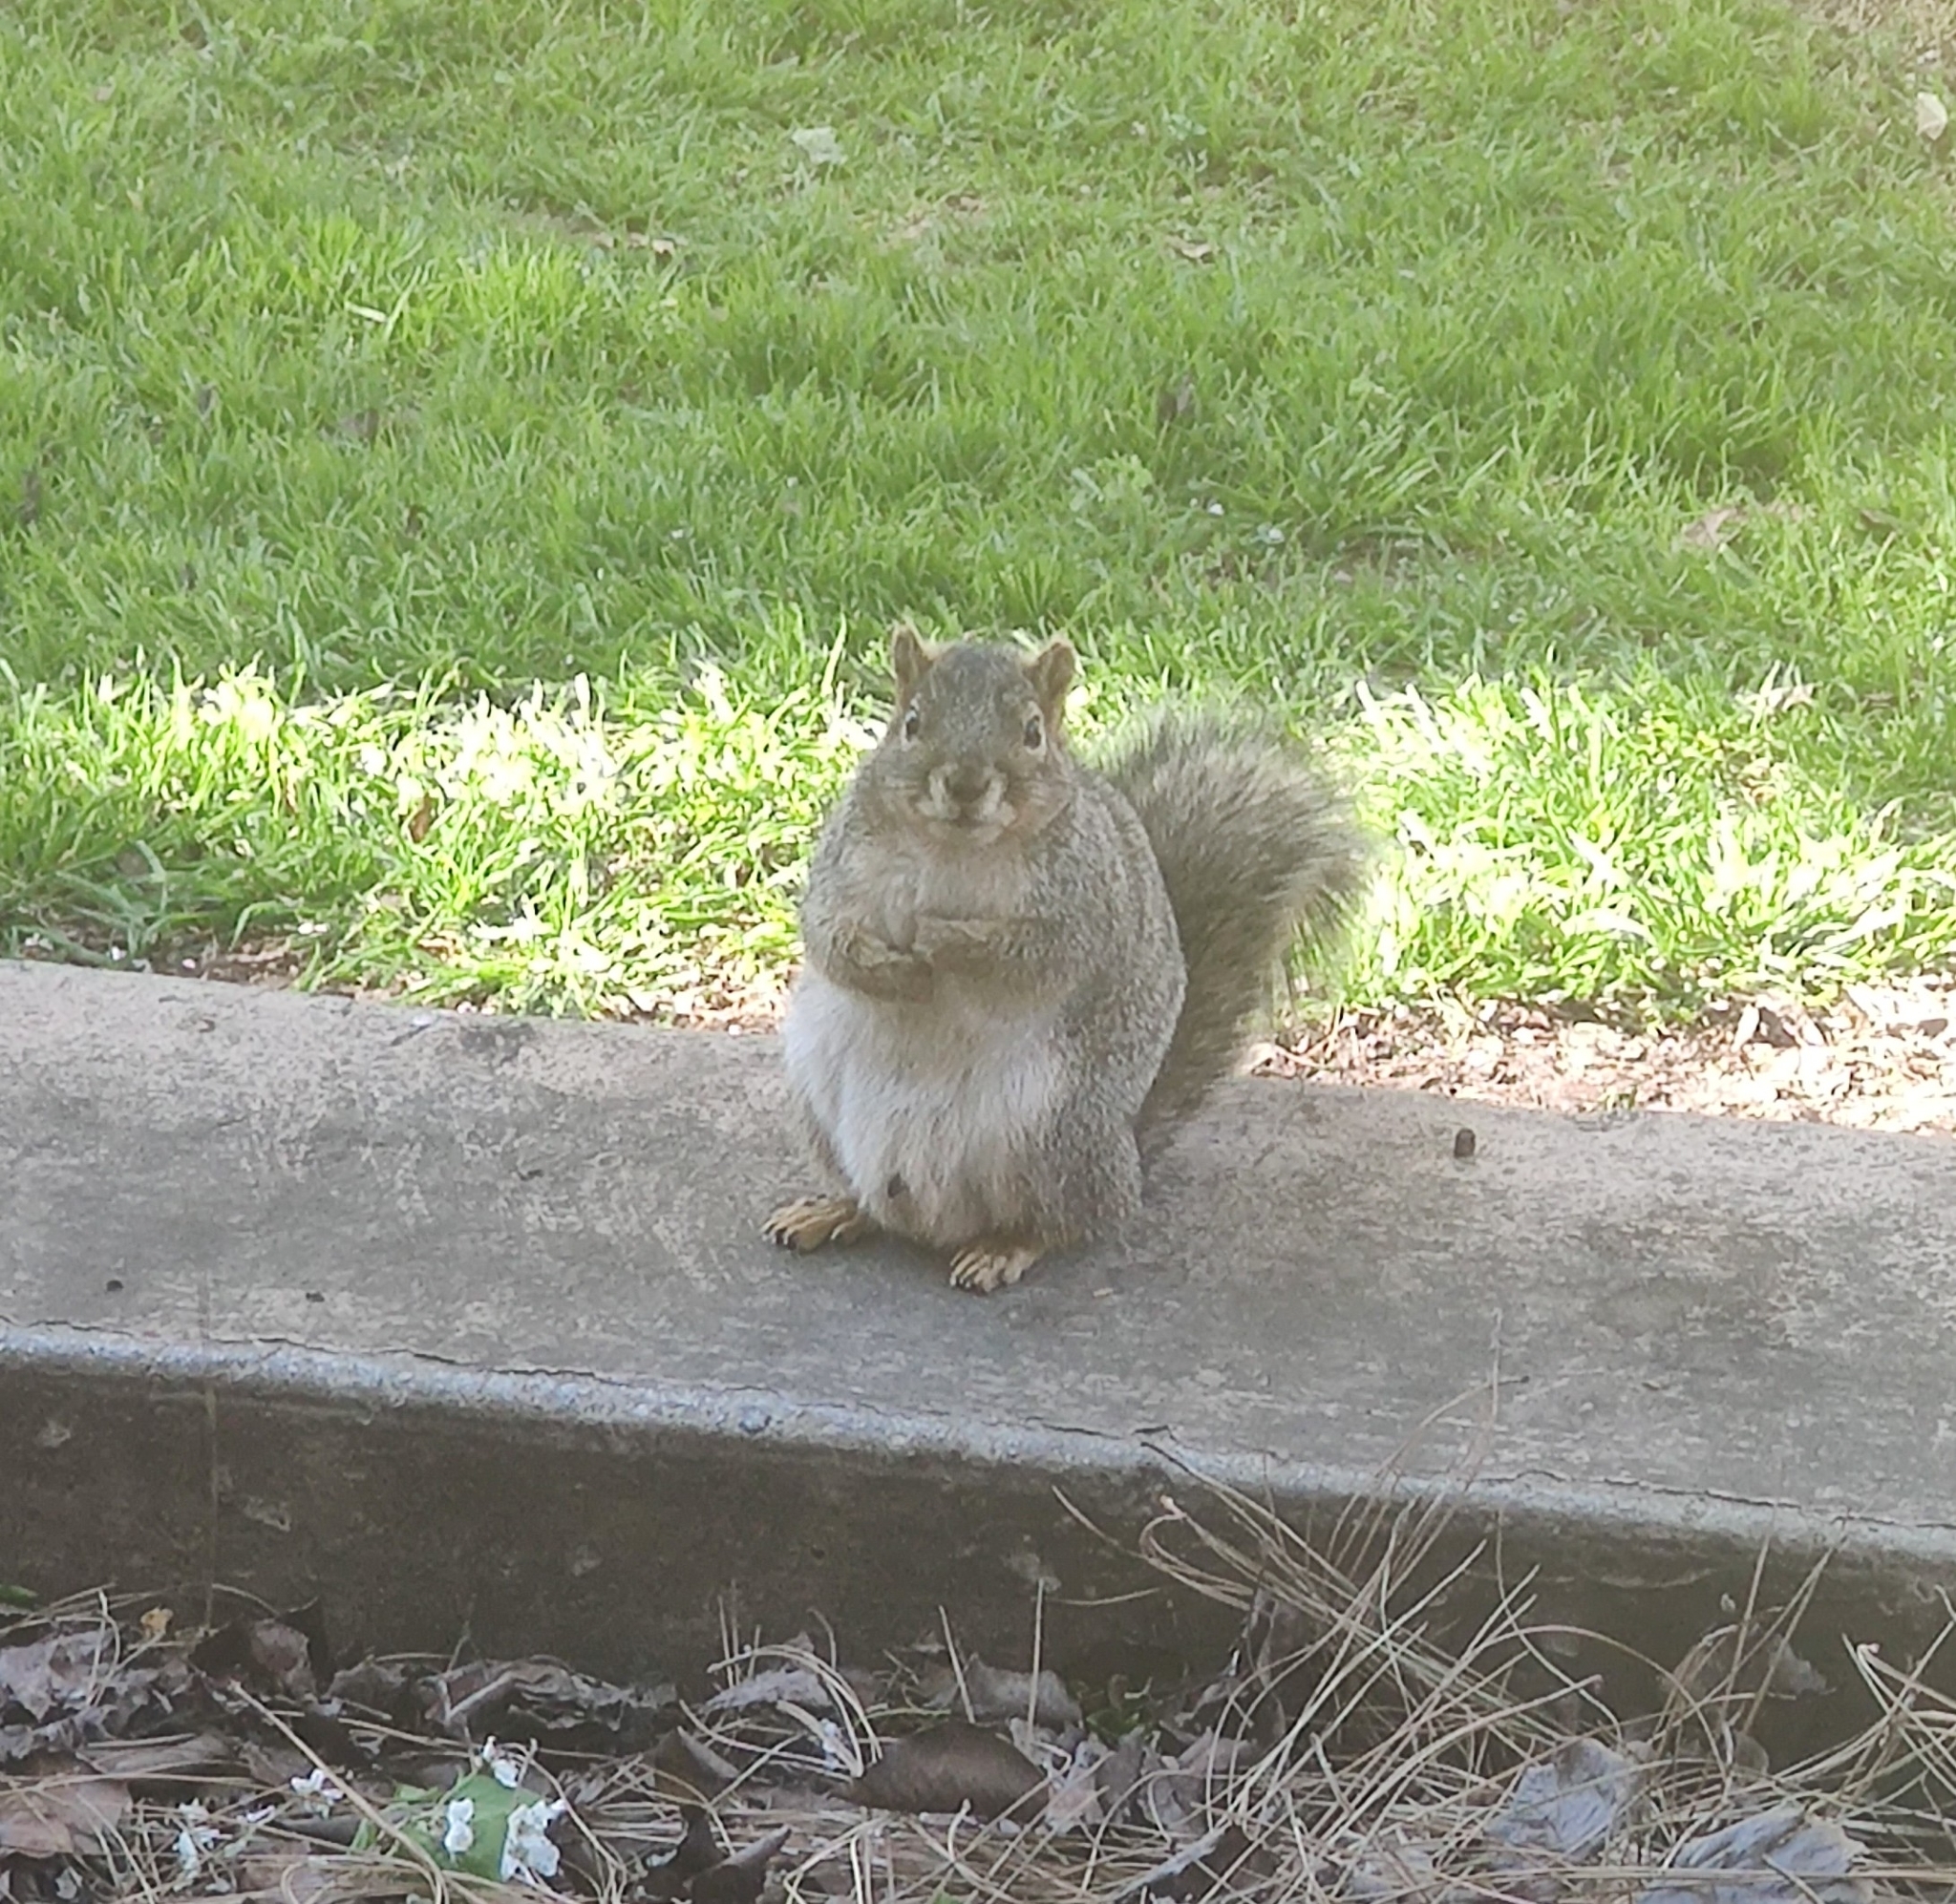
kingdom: Animalia
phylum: Chordata
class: Mammalia
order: Rodentia
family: Sciuridae
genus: Sciurus
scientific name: Sciurus niger
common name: Fox squirrel
